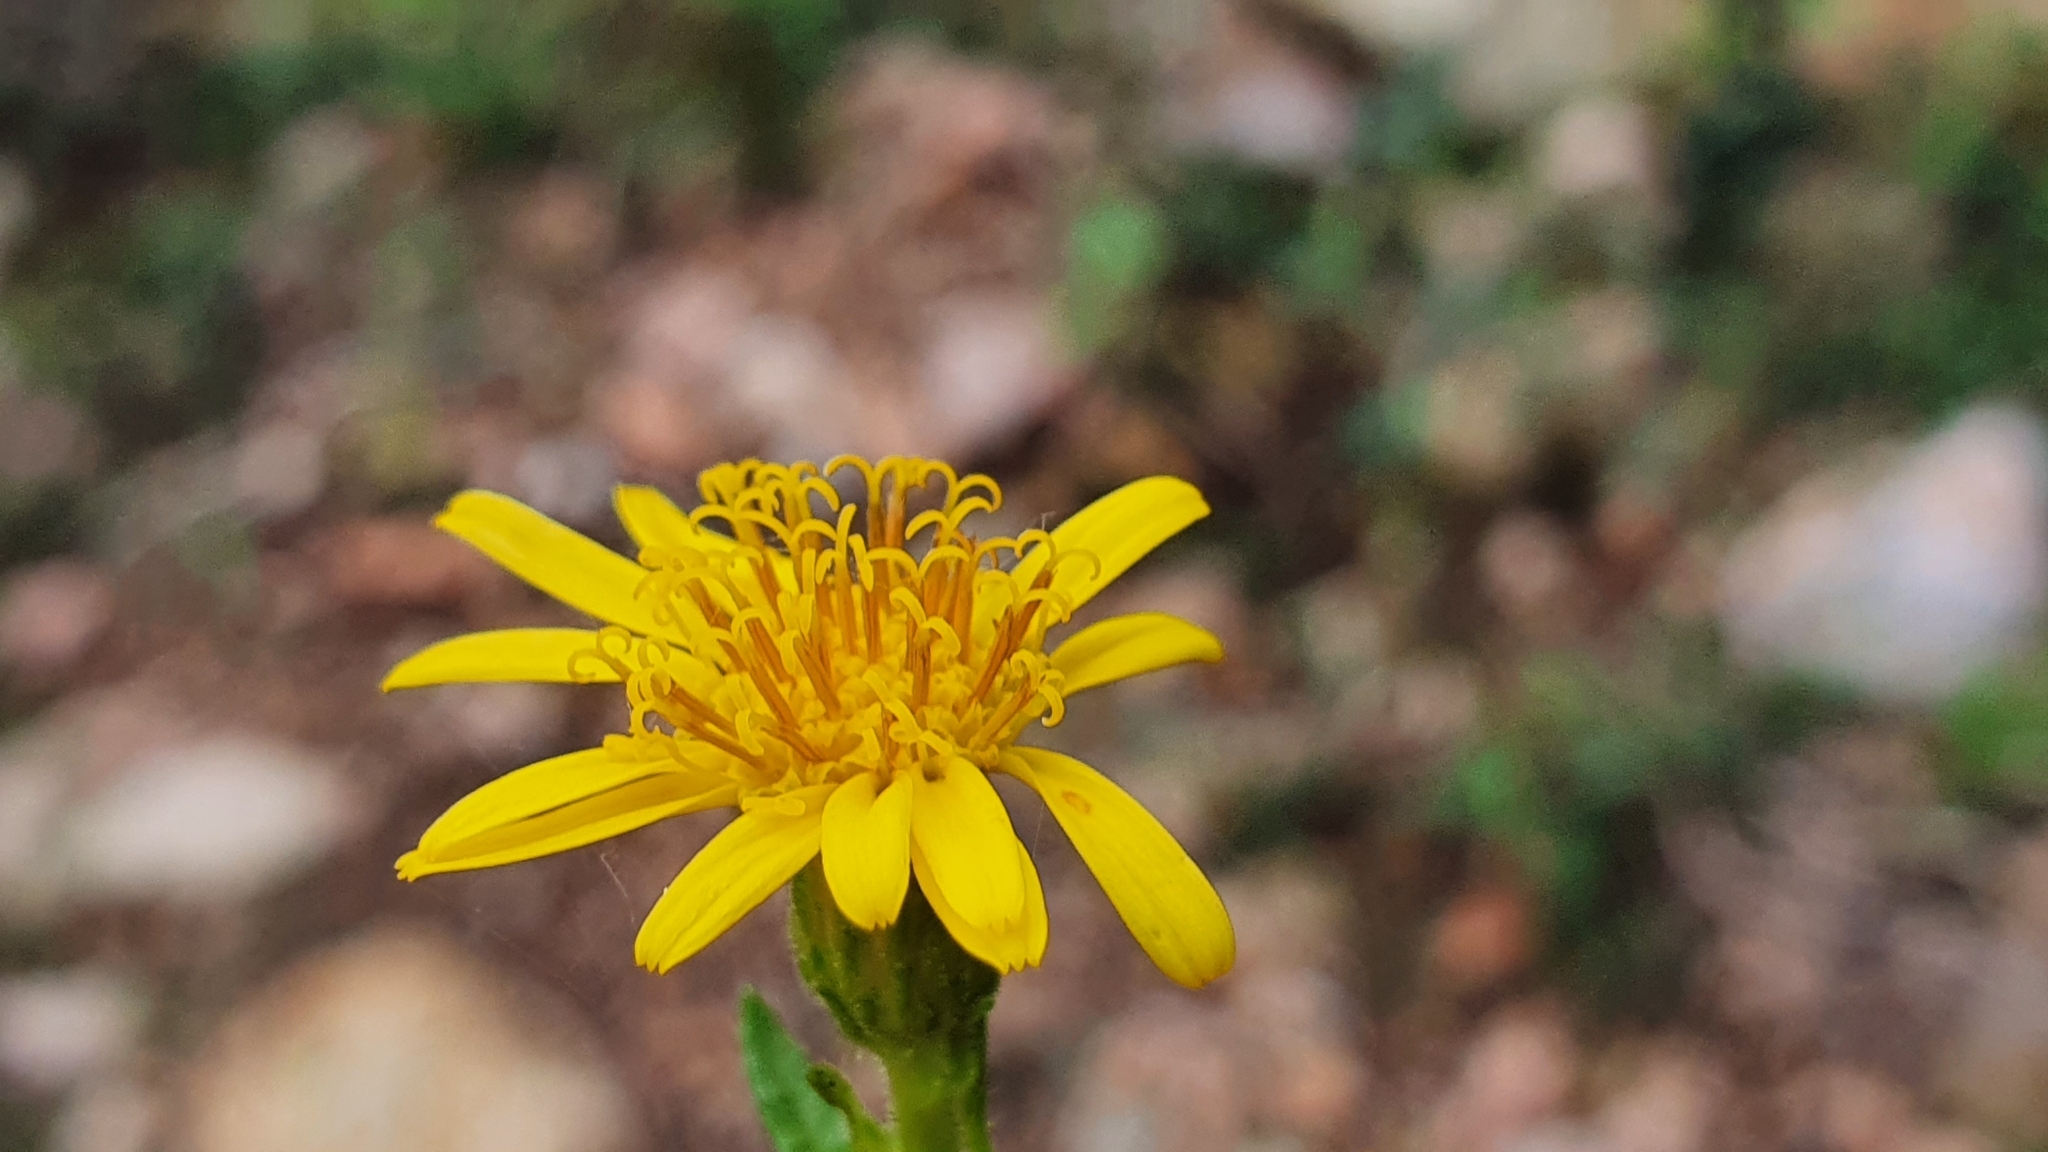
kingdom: Plantae
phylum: Tracheophyta
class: Magnoliopsida
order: Asterales
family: Asteraceae
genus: Dittrichia
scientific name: Dittrichia viscosa
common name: Woody fleabane
